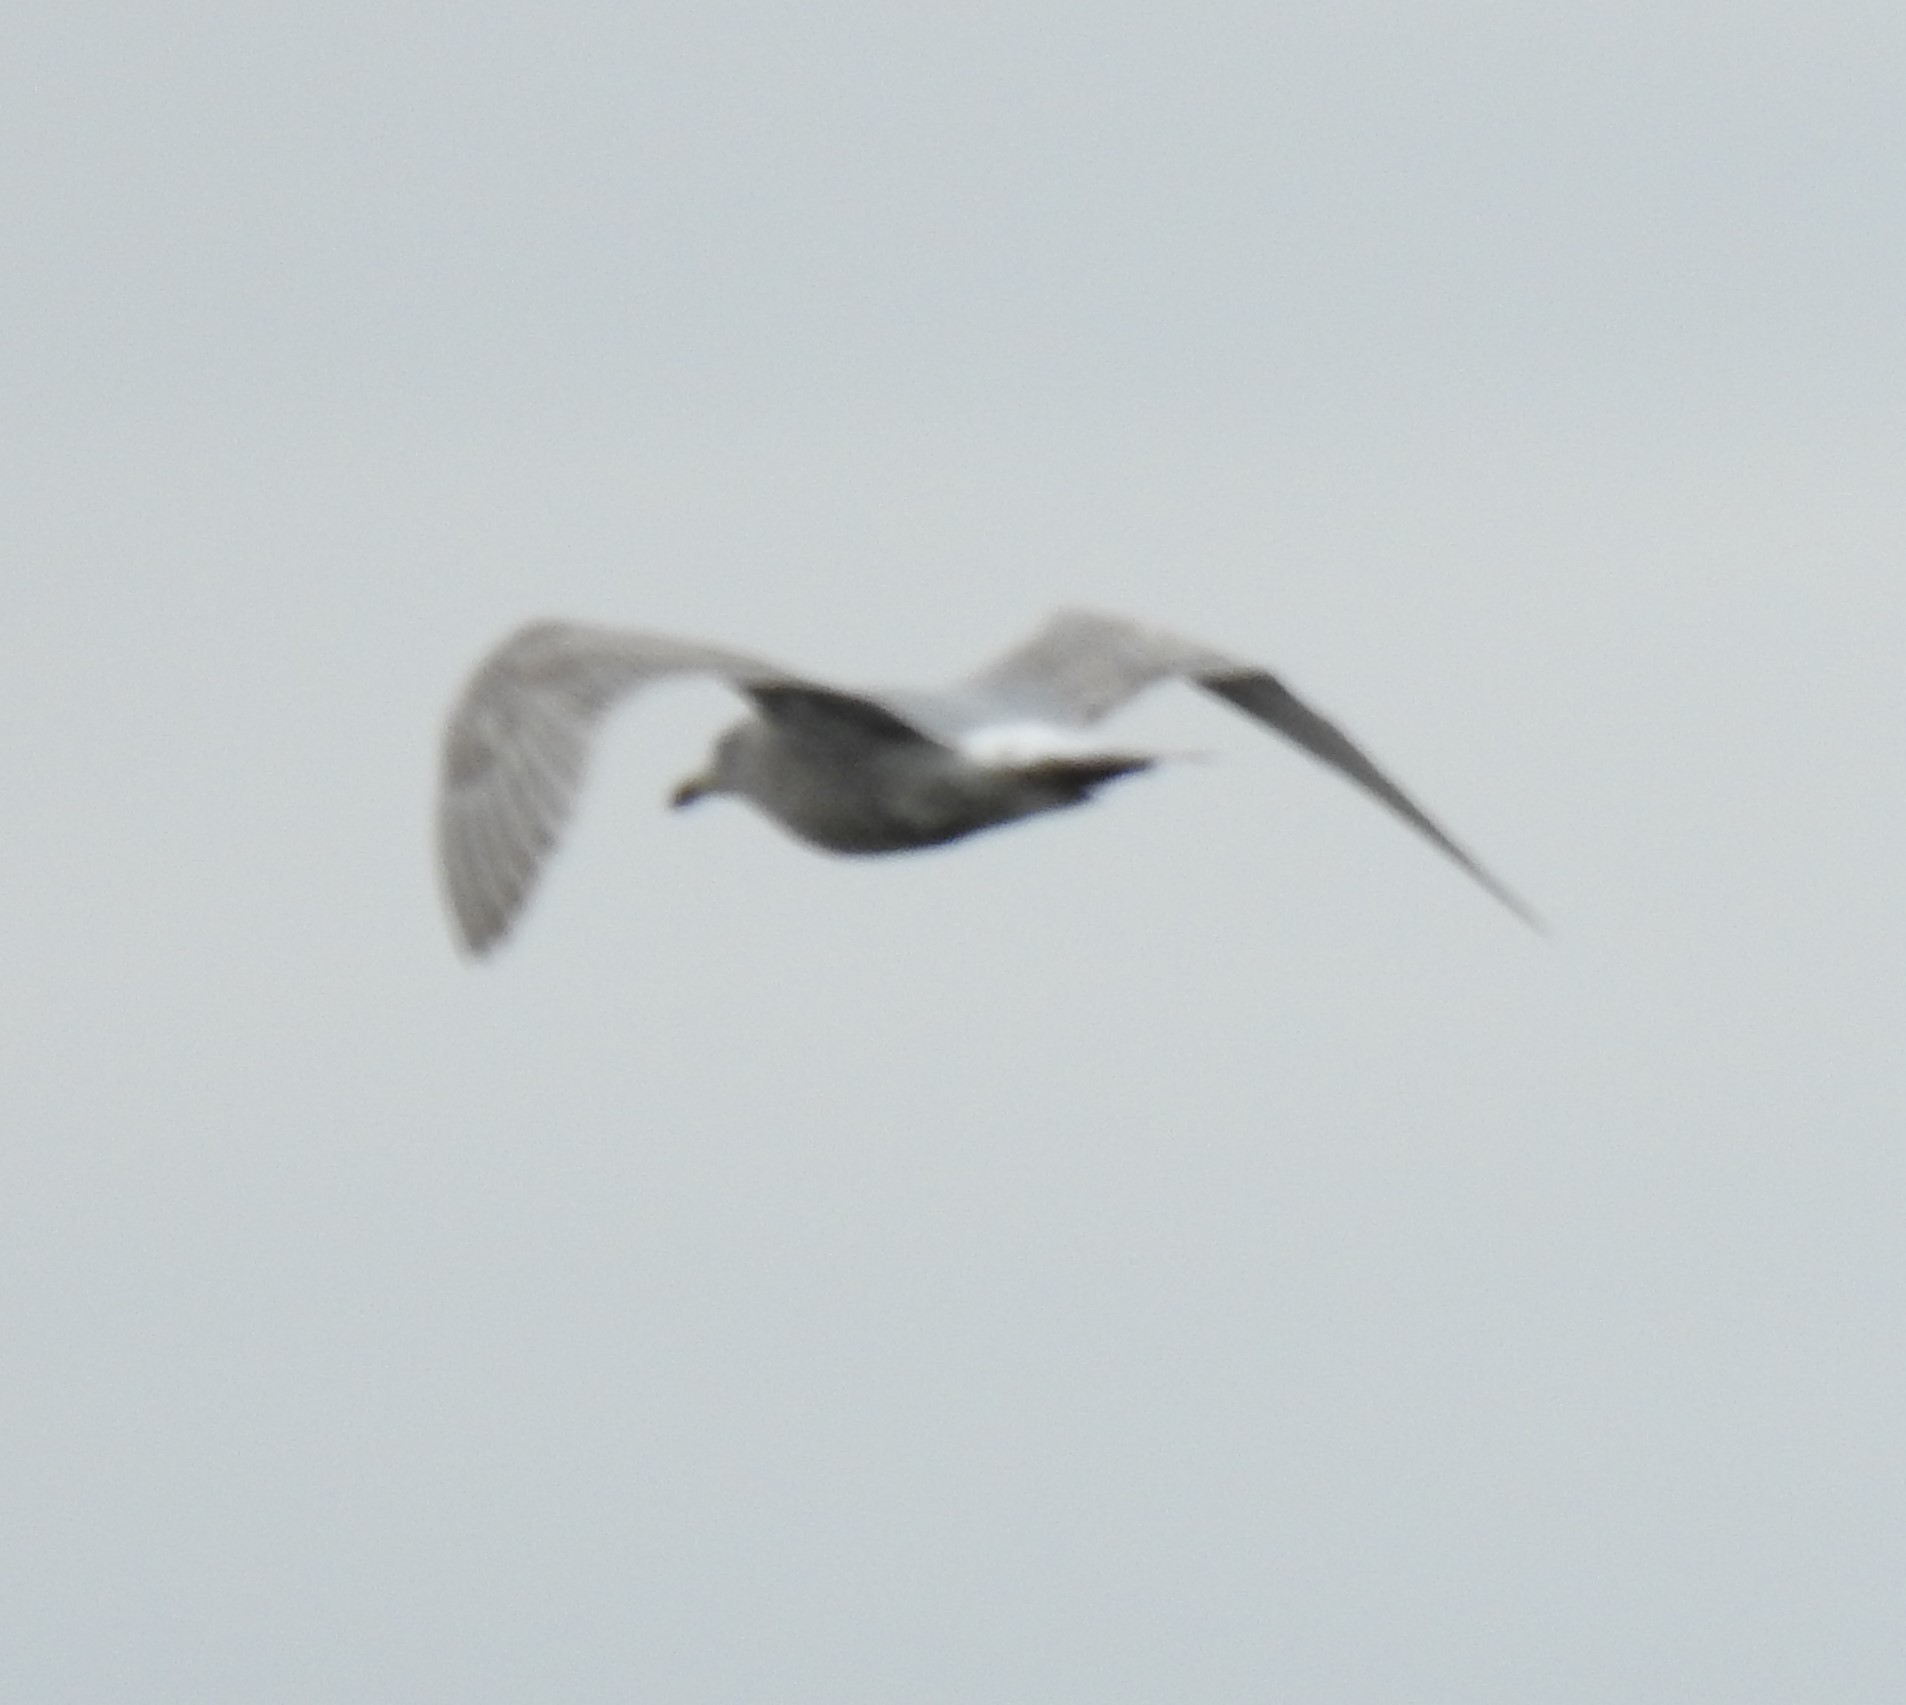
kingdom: Animalia
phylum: Chordata
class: Aves
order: Charadriiformes
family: Laridae
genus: Larus
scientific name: Larus glaucescens
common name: Glaucous-winged gull
